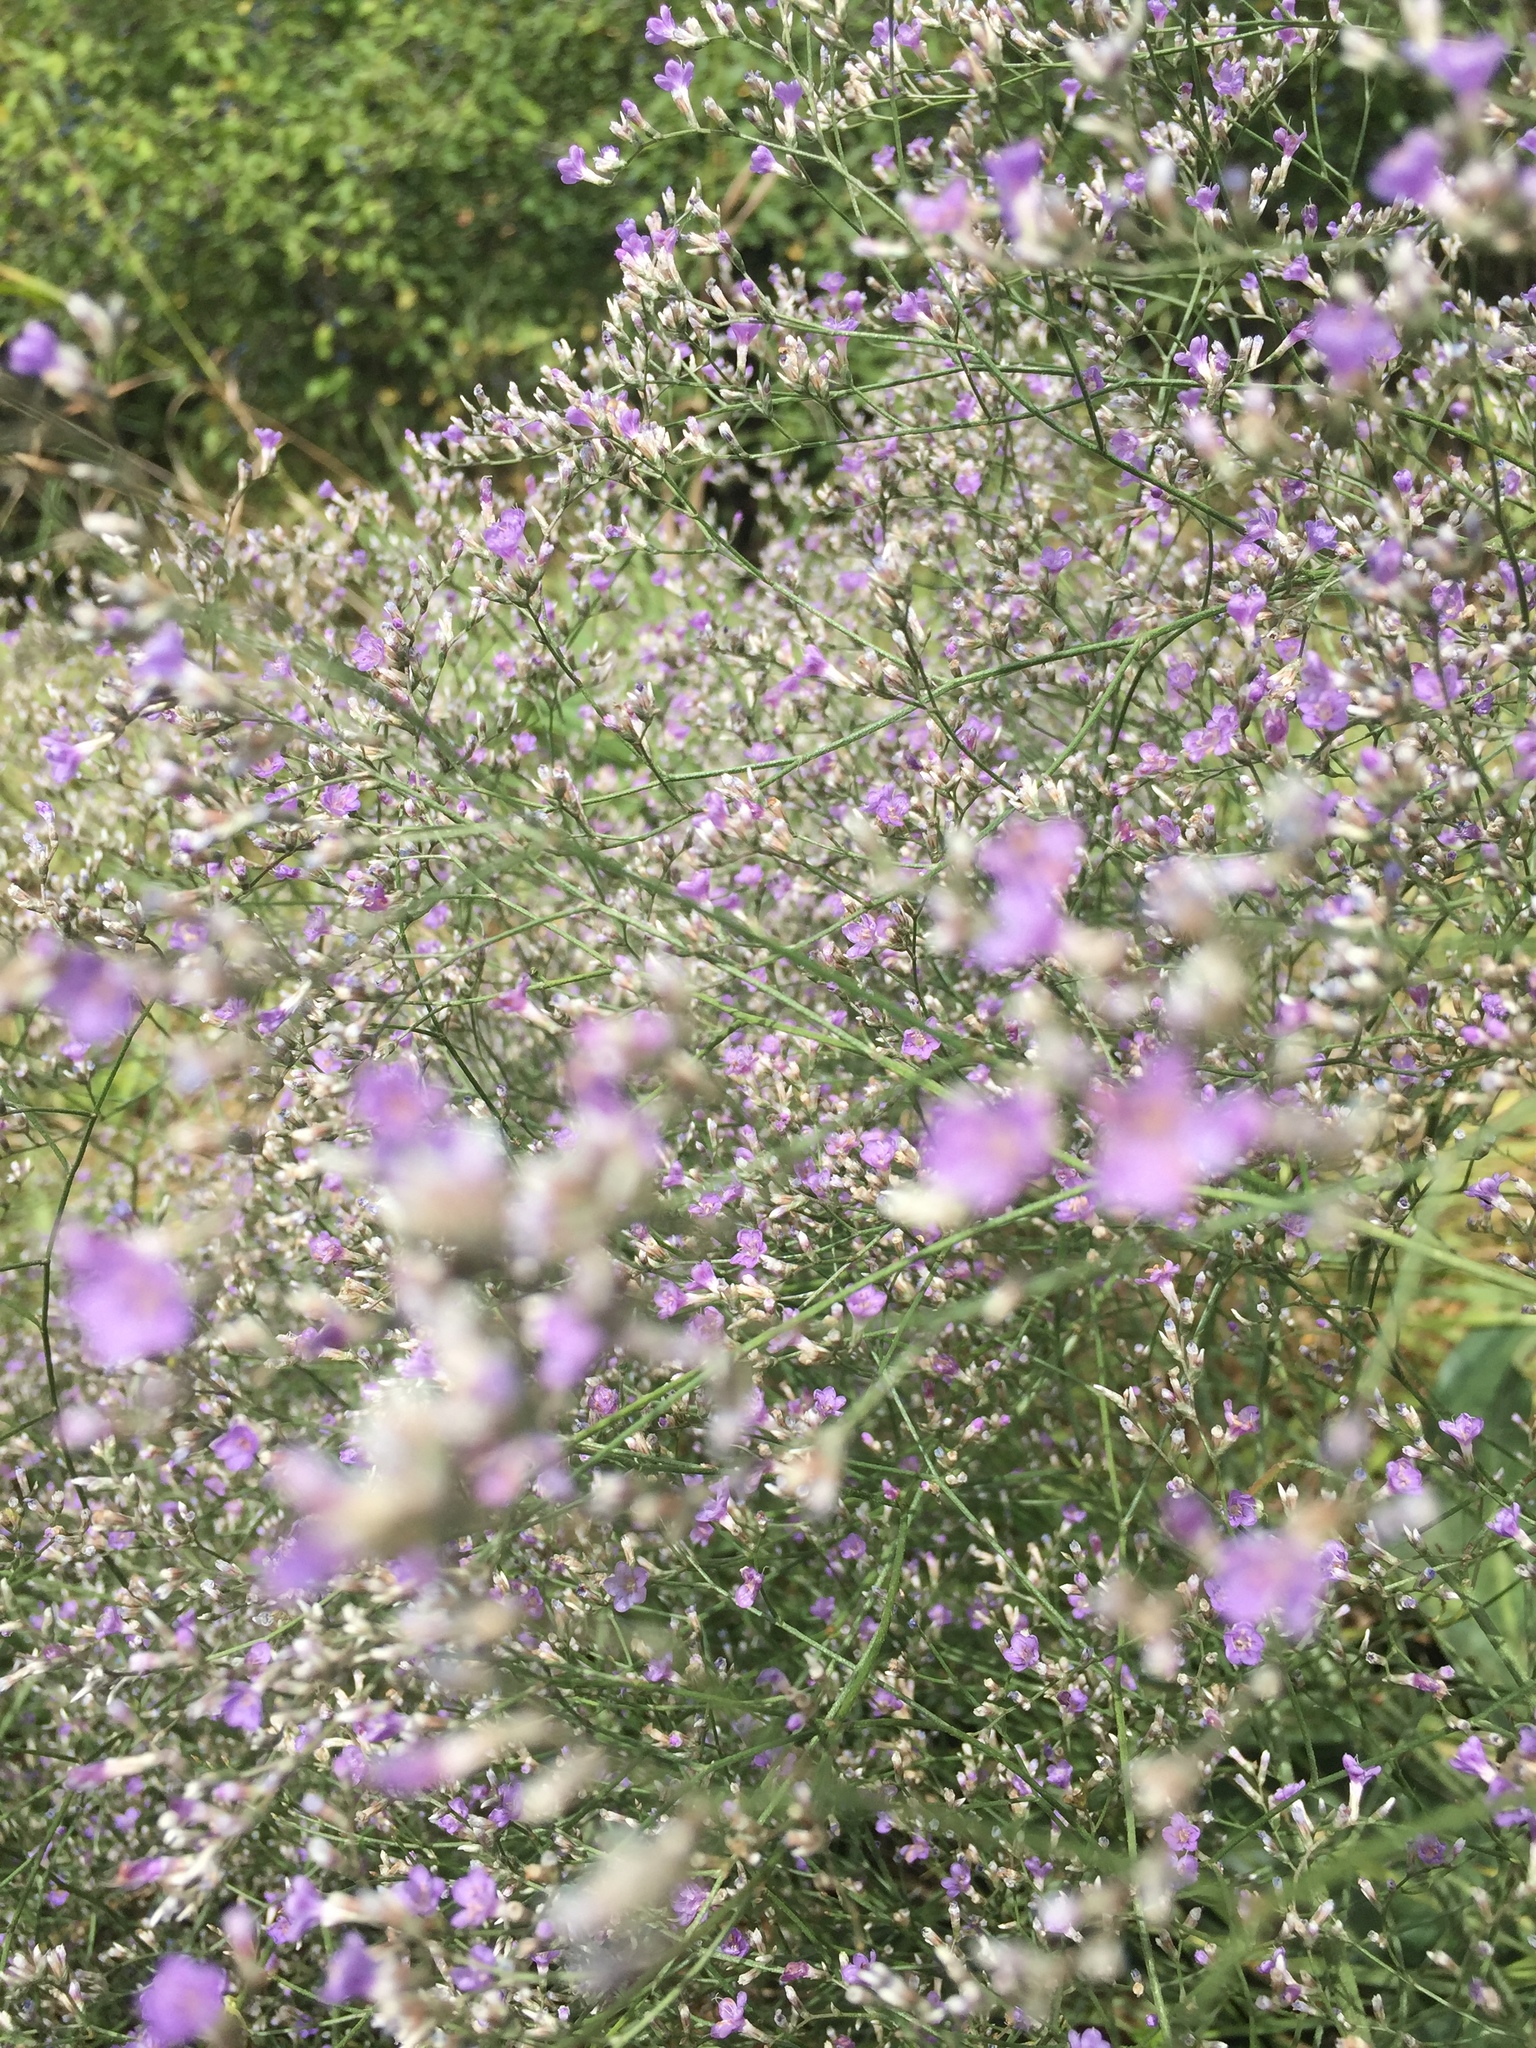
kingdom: Plantae
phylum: Tracheophyta
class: Magnoliopsida
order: Caryophyllales
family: Plumbaginaceae
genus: Limonium
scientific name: Limonium platyphyllum
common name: Florist's sea lavender
